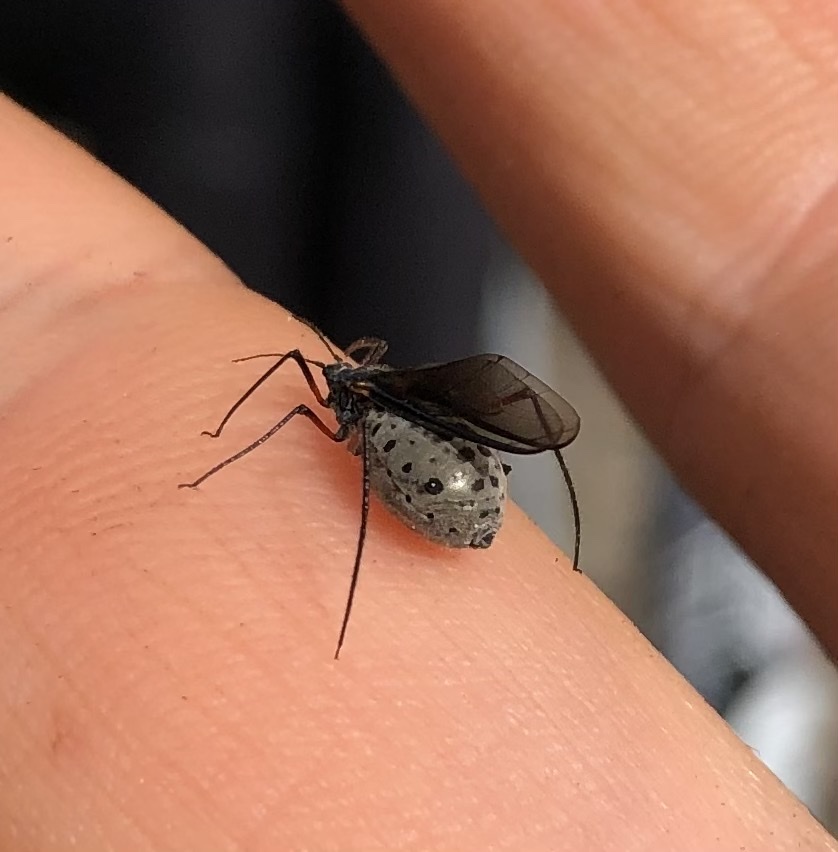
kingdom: Animalia
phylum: Arthropoda
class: Insecta
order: Hemiptera
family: Aphididae
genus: Longistigma
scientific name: Longistigma caryae
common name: Giant bark aphid
